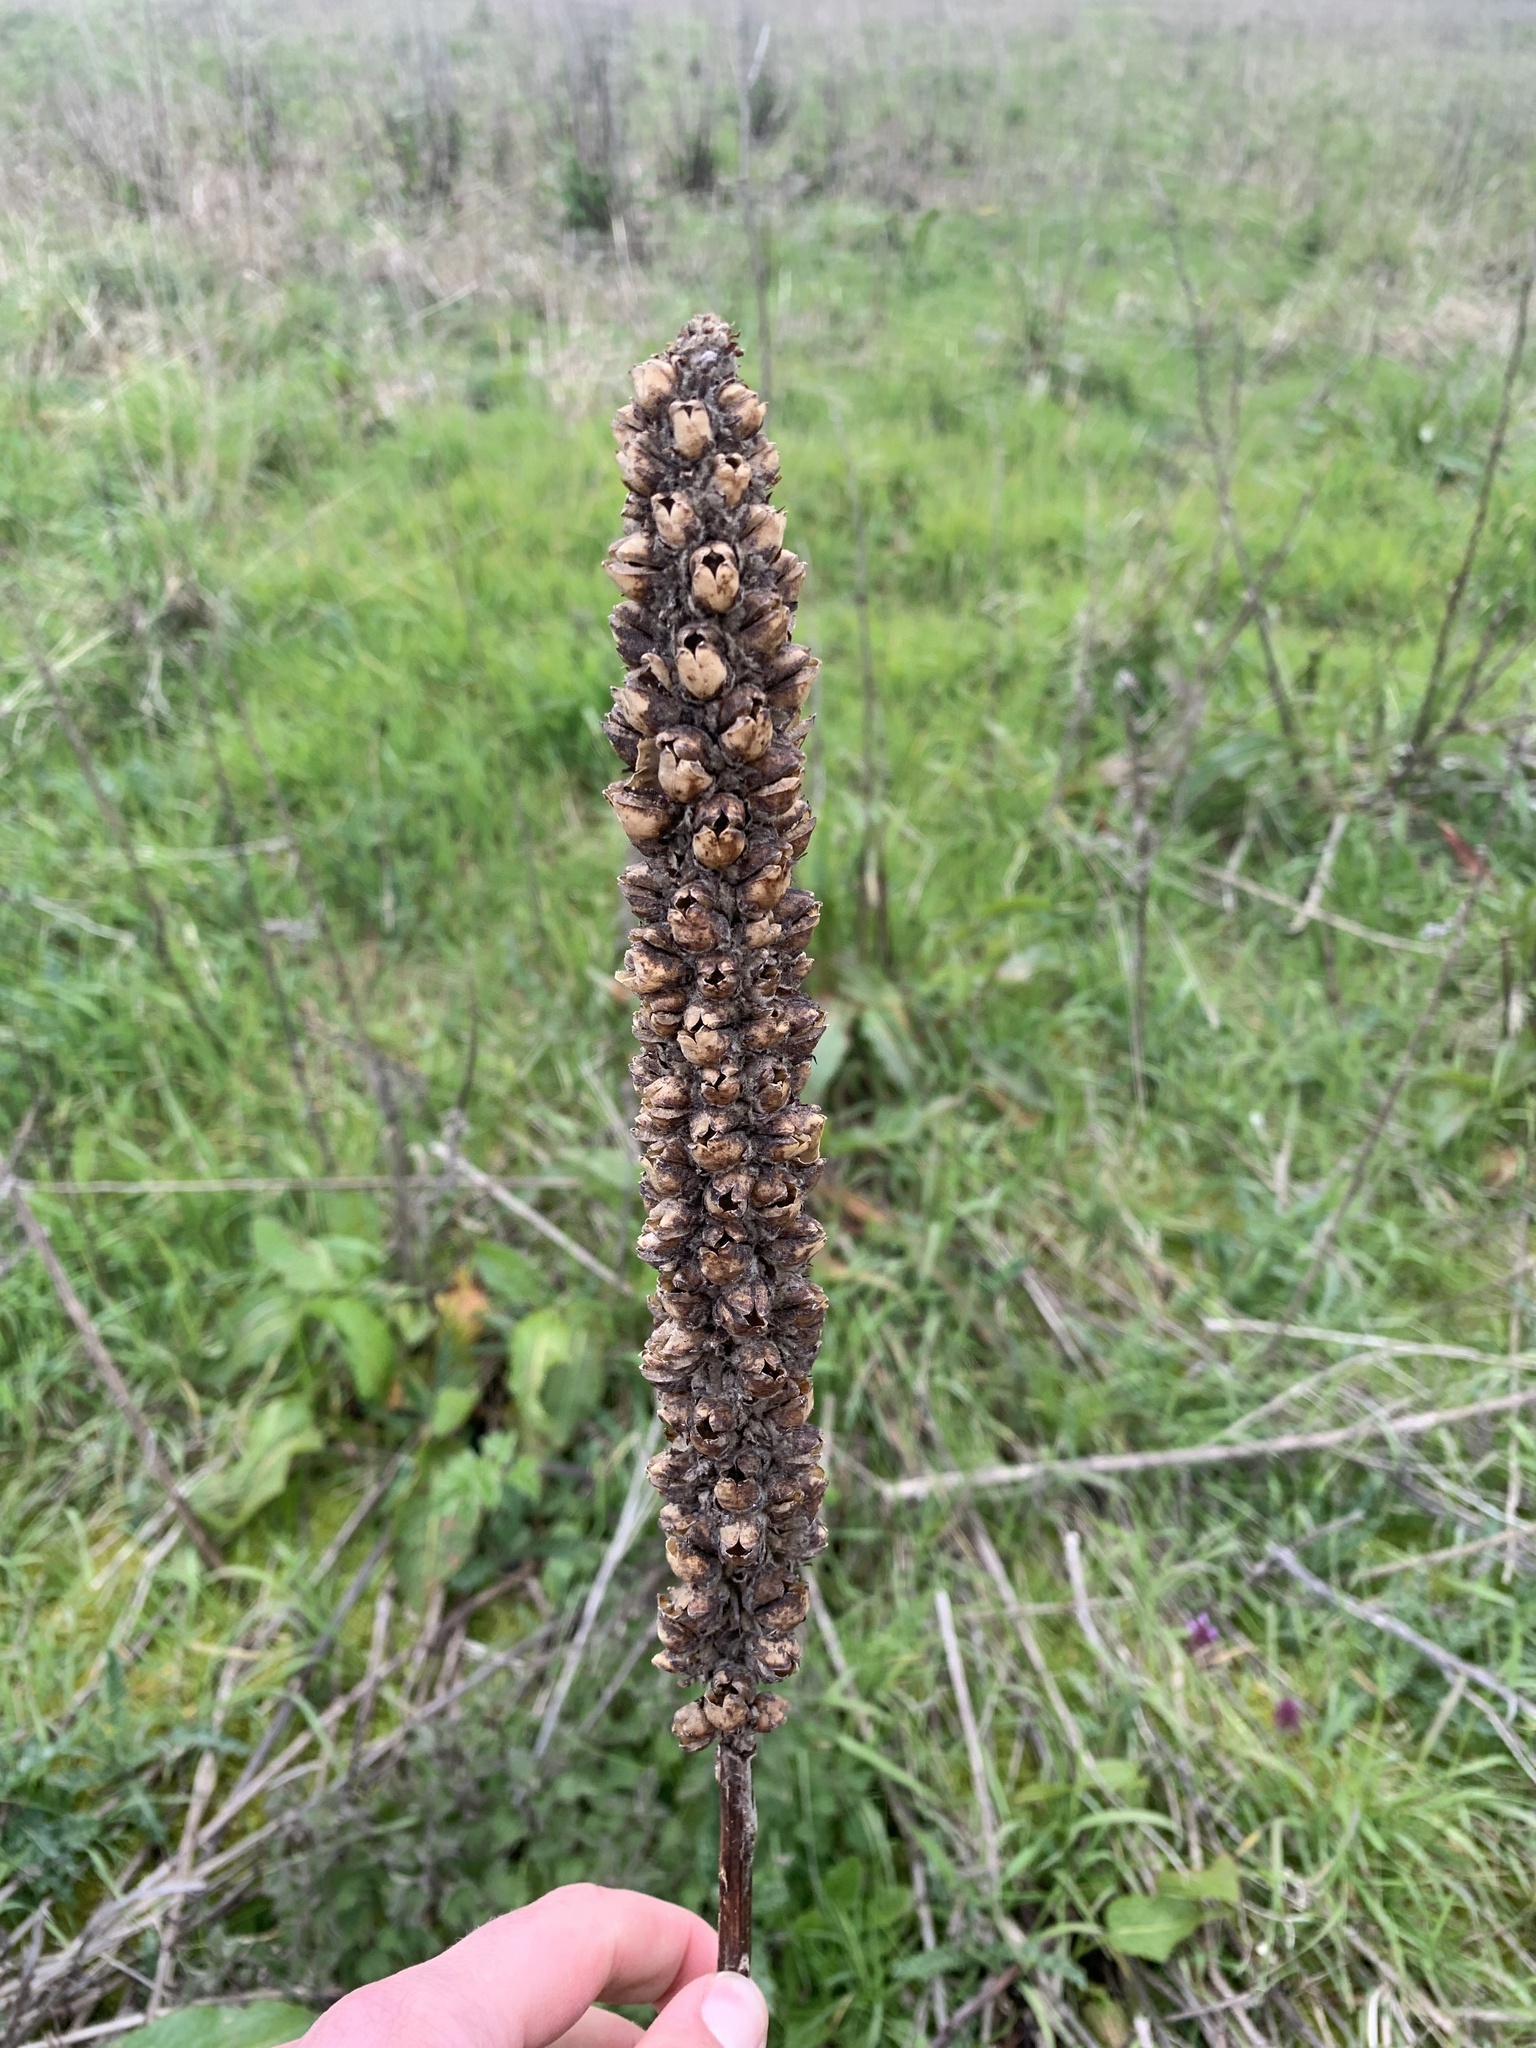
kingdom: Plantae
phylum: Tracheophyta
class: Magnoliopsida
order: Lamiales
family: Scrophulariaceae
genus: Verbascum
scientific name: Verbascum thapsus
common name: Common mullein
